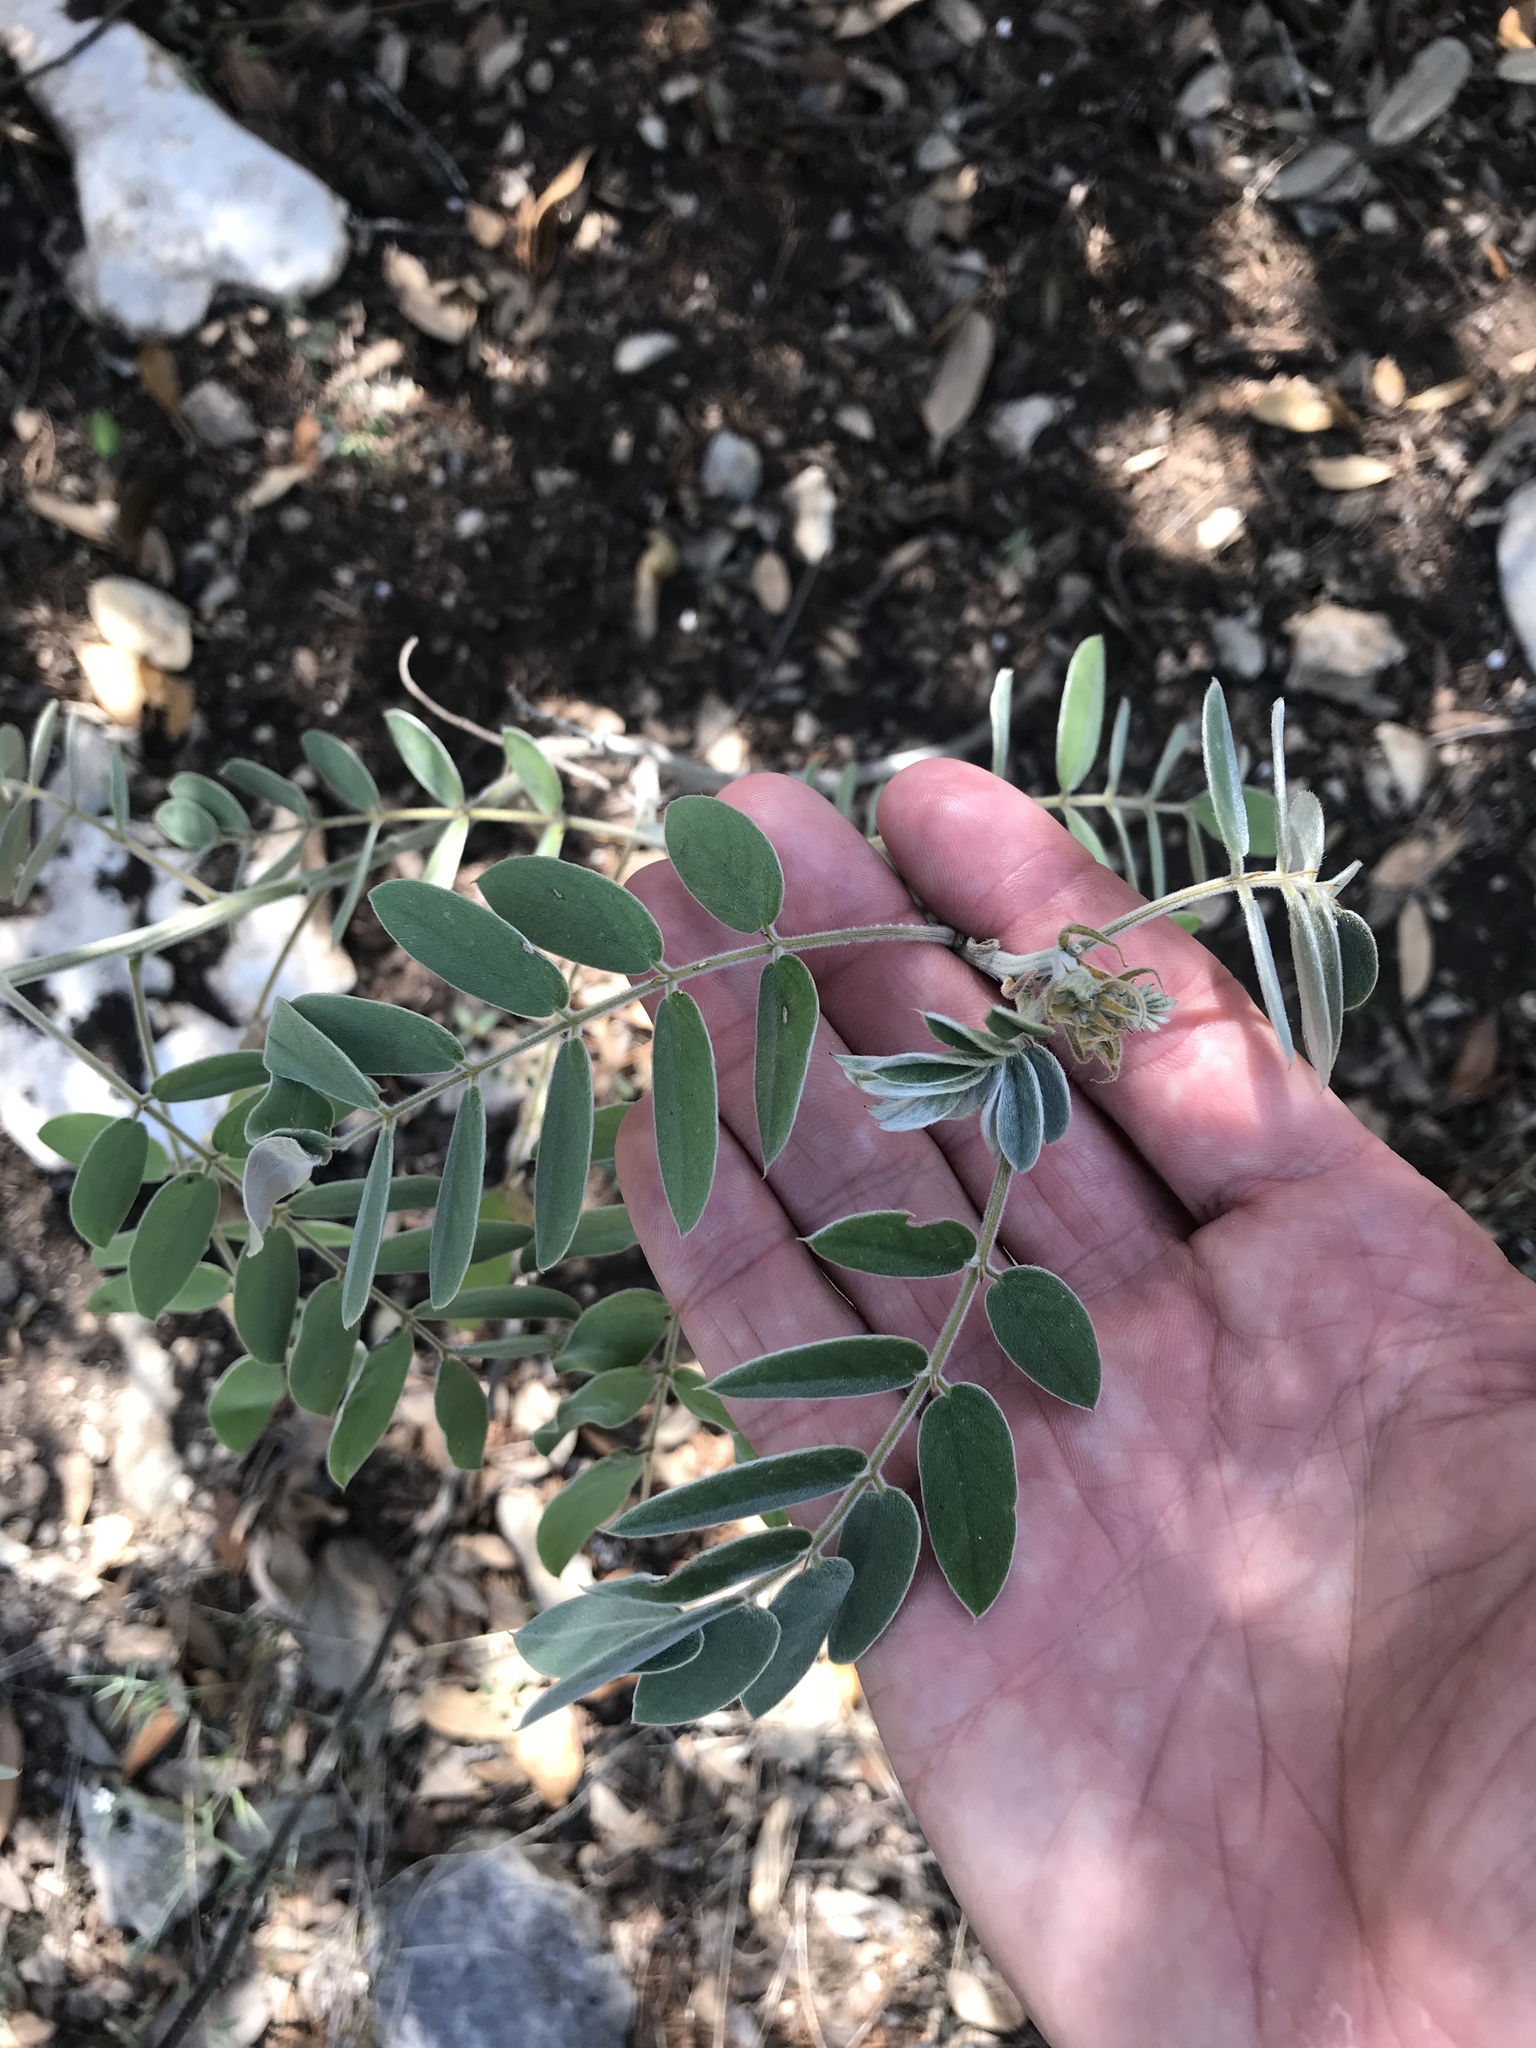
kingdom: Plantae
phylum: Tracheophyta
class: Magnoliopsida
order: Fabales
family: Fabaceae
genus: Senna
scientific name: Senna lindheimeriana
